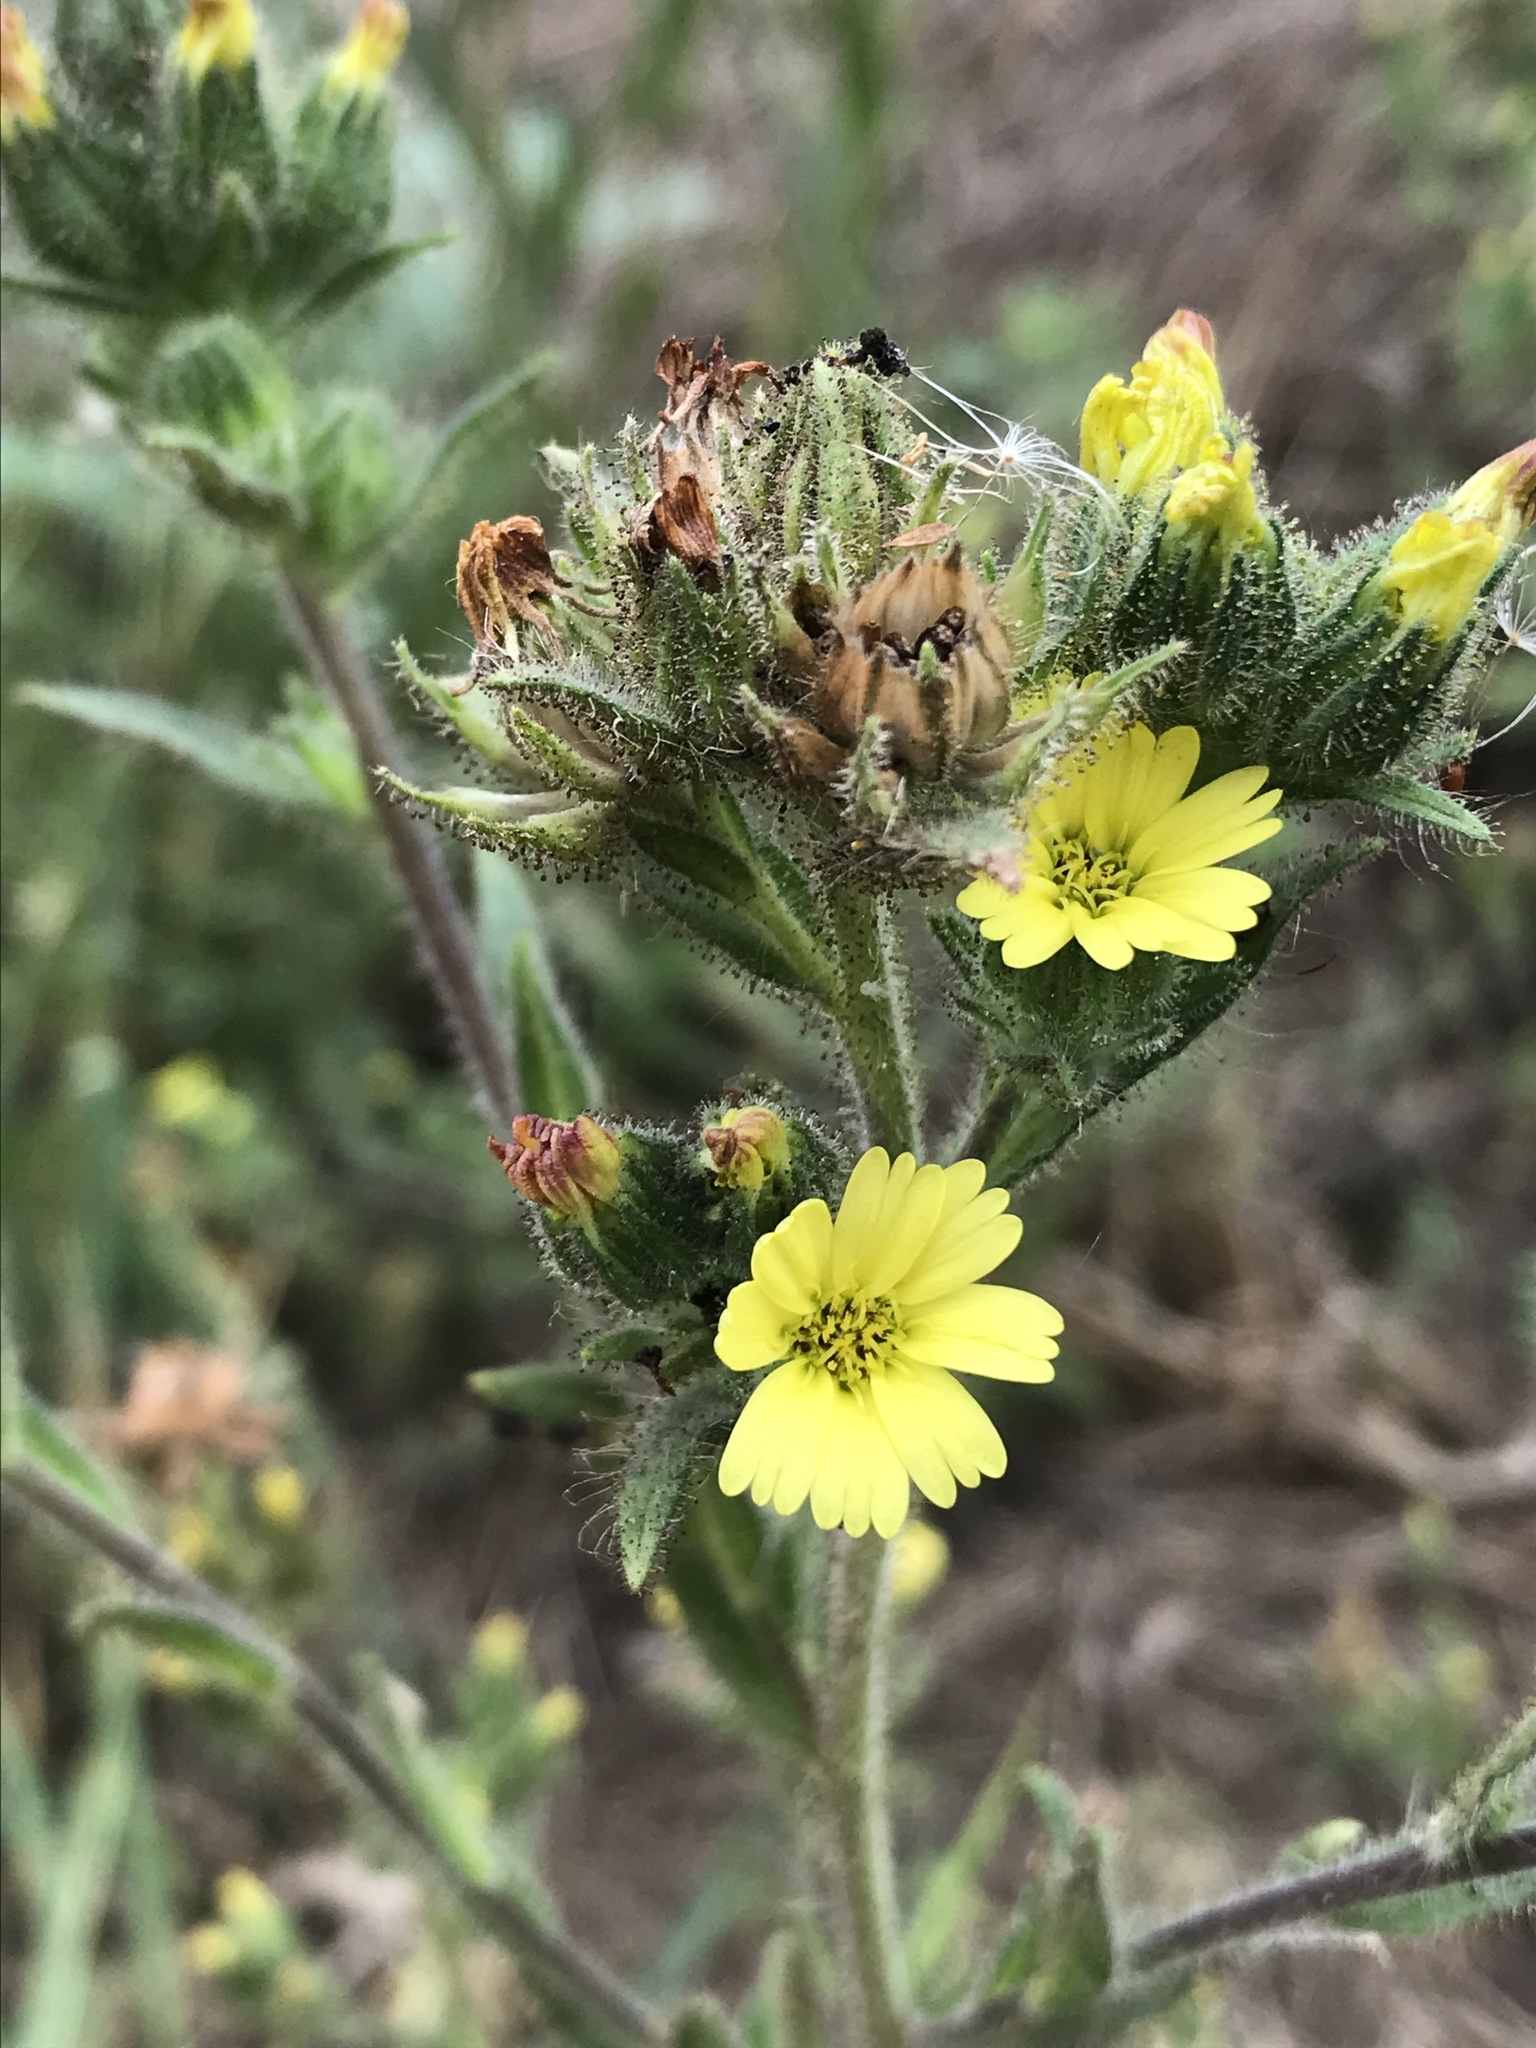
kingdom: Plantae
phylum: Tracheophyta
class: Magnoliopsida
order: Asterales
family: Asteraceae
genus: Madia
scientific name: Madia sativa
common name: Coast tarweed
